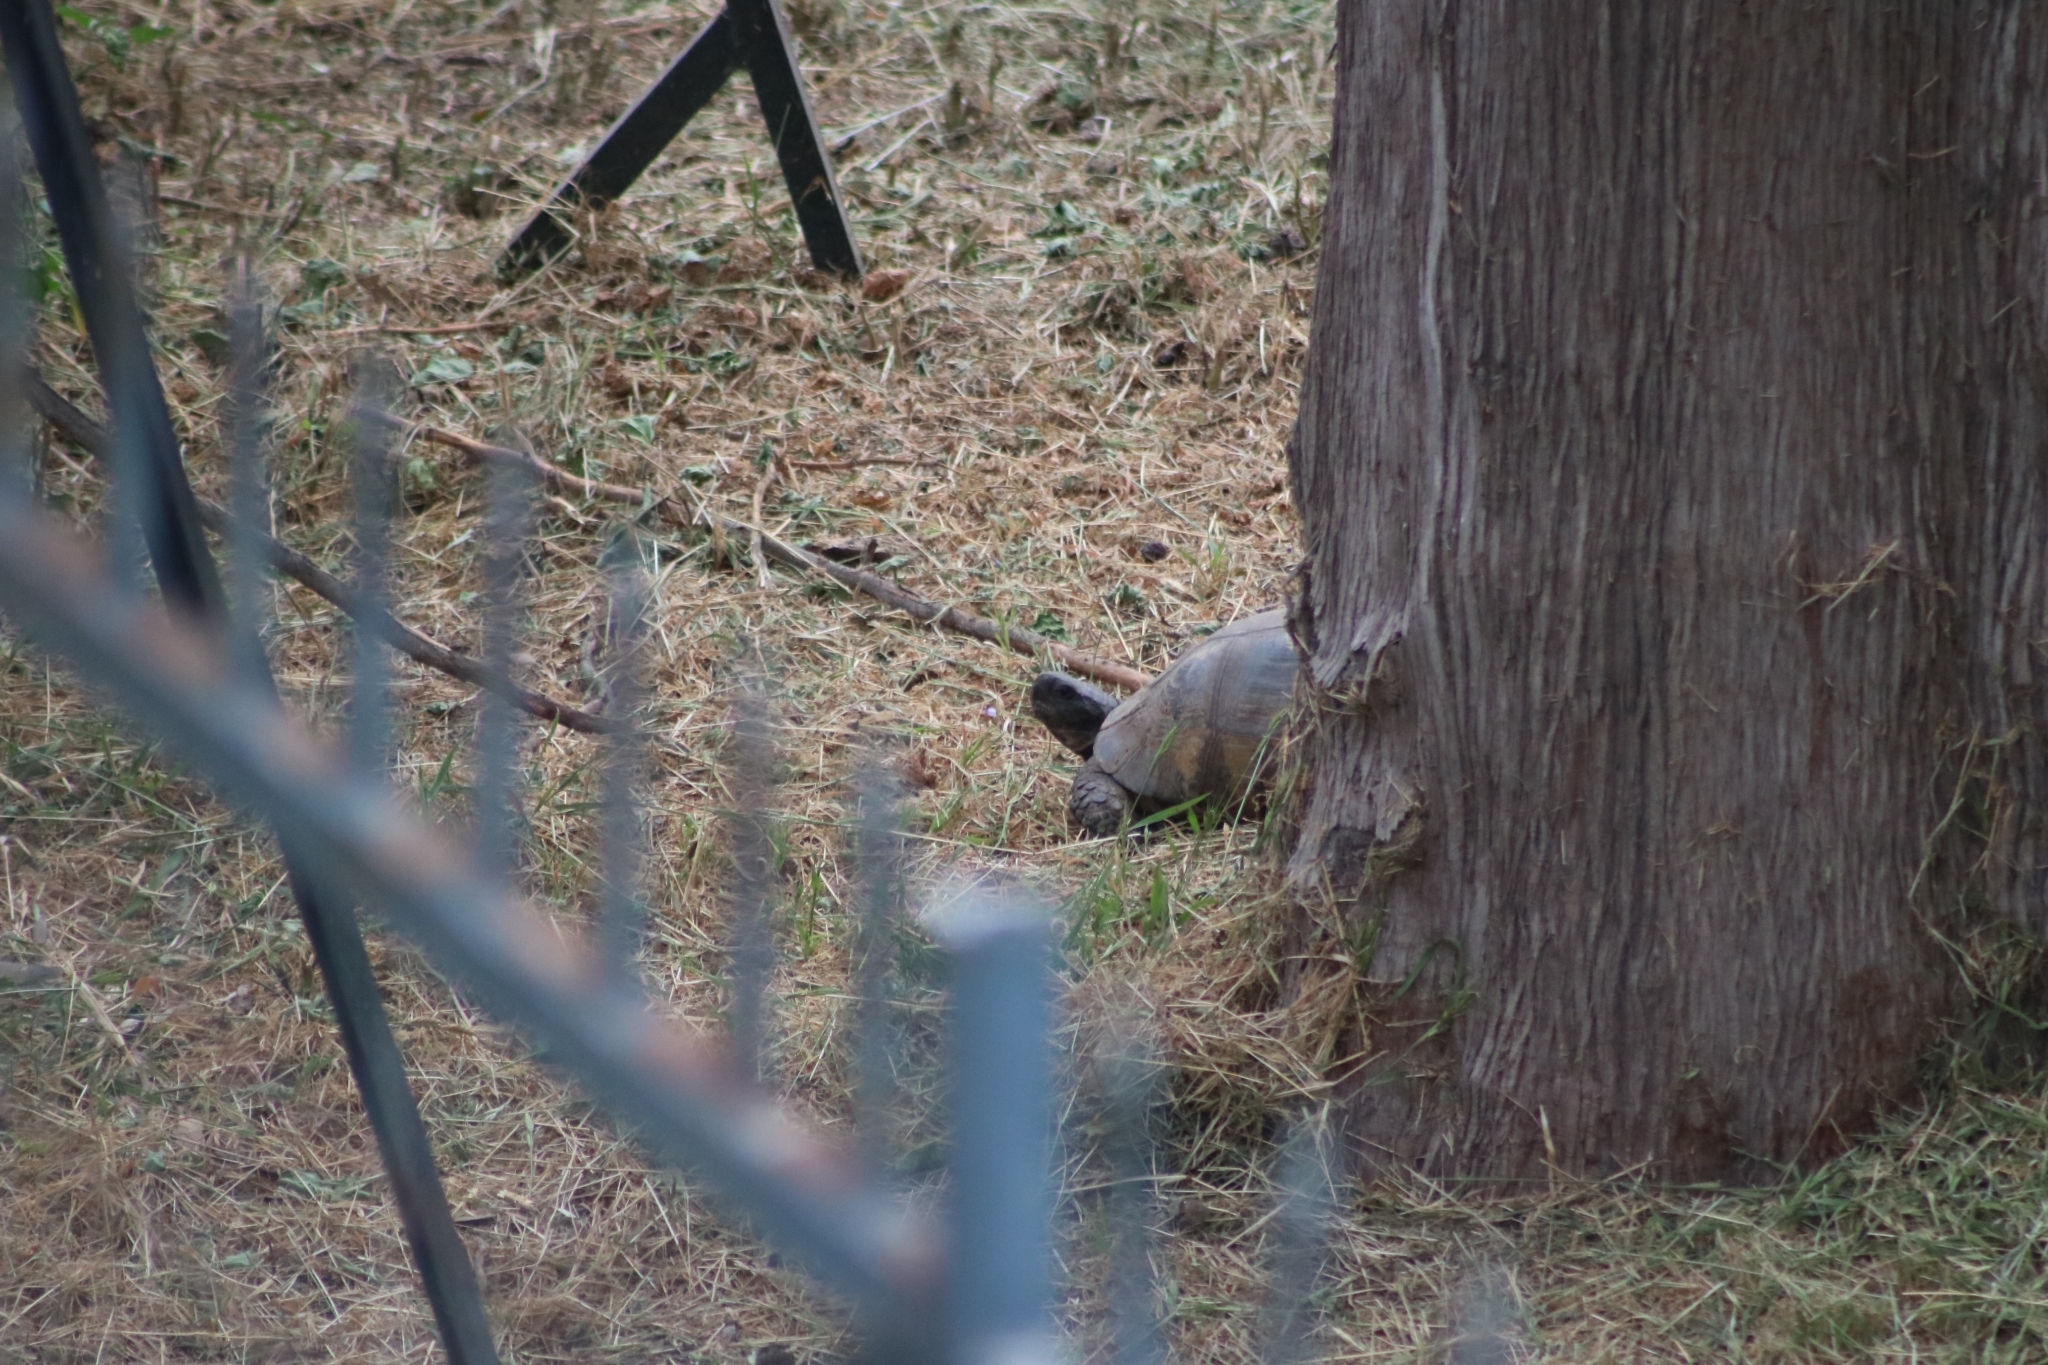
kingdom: Animalia
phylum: Chordata
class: Testudines
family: Testudinidae
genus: Testudo
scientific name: Testudo marginata
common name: Marginated tortoise
